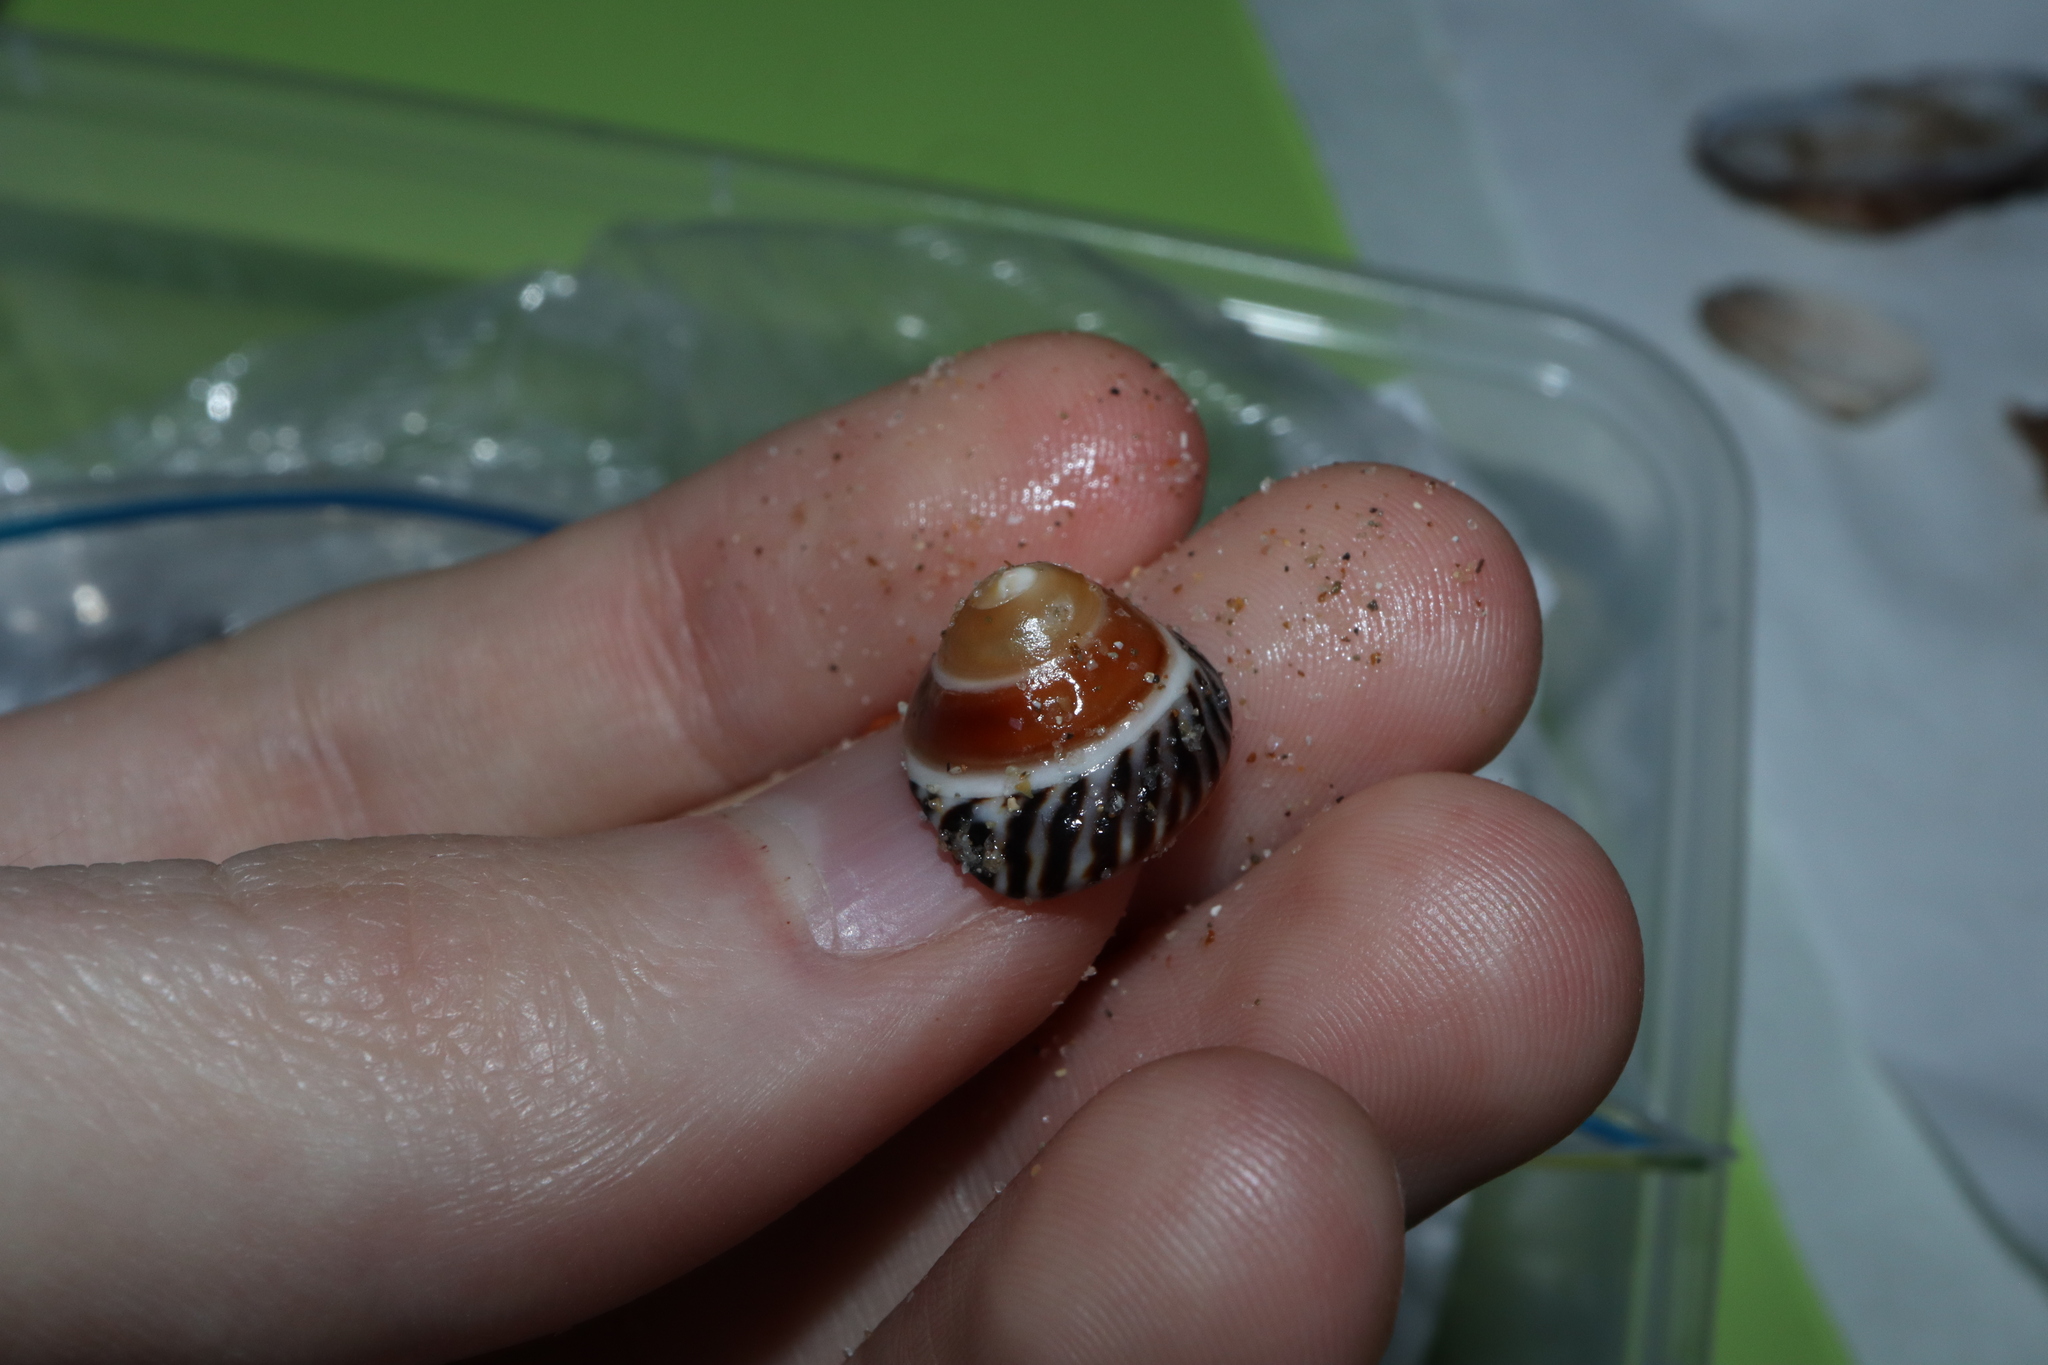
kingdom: Animalia
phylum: Mollusca
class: Gastropoda
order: Littorinimorpha
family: Littorinidae
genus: Bembicium
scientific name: Bembicium nanum
